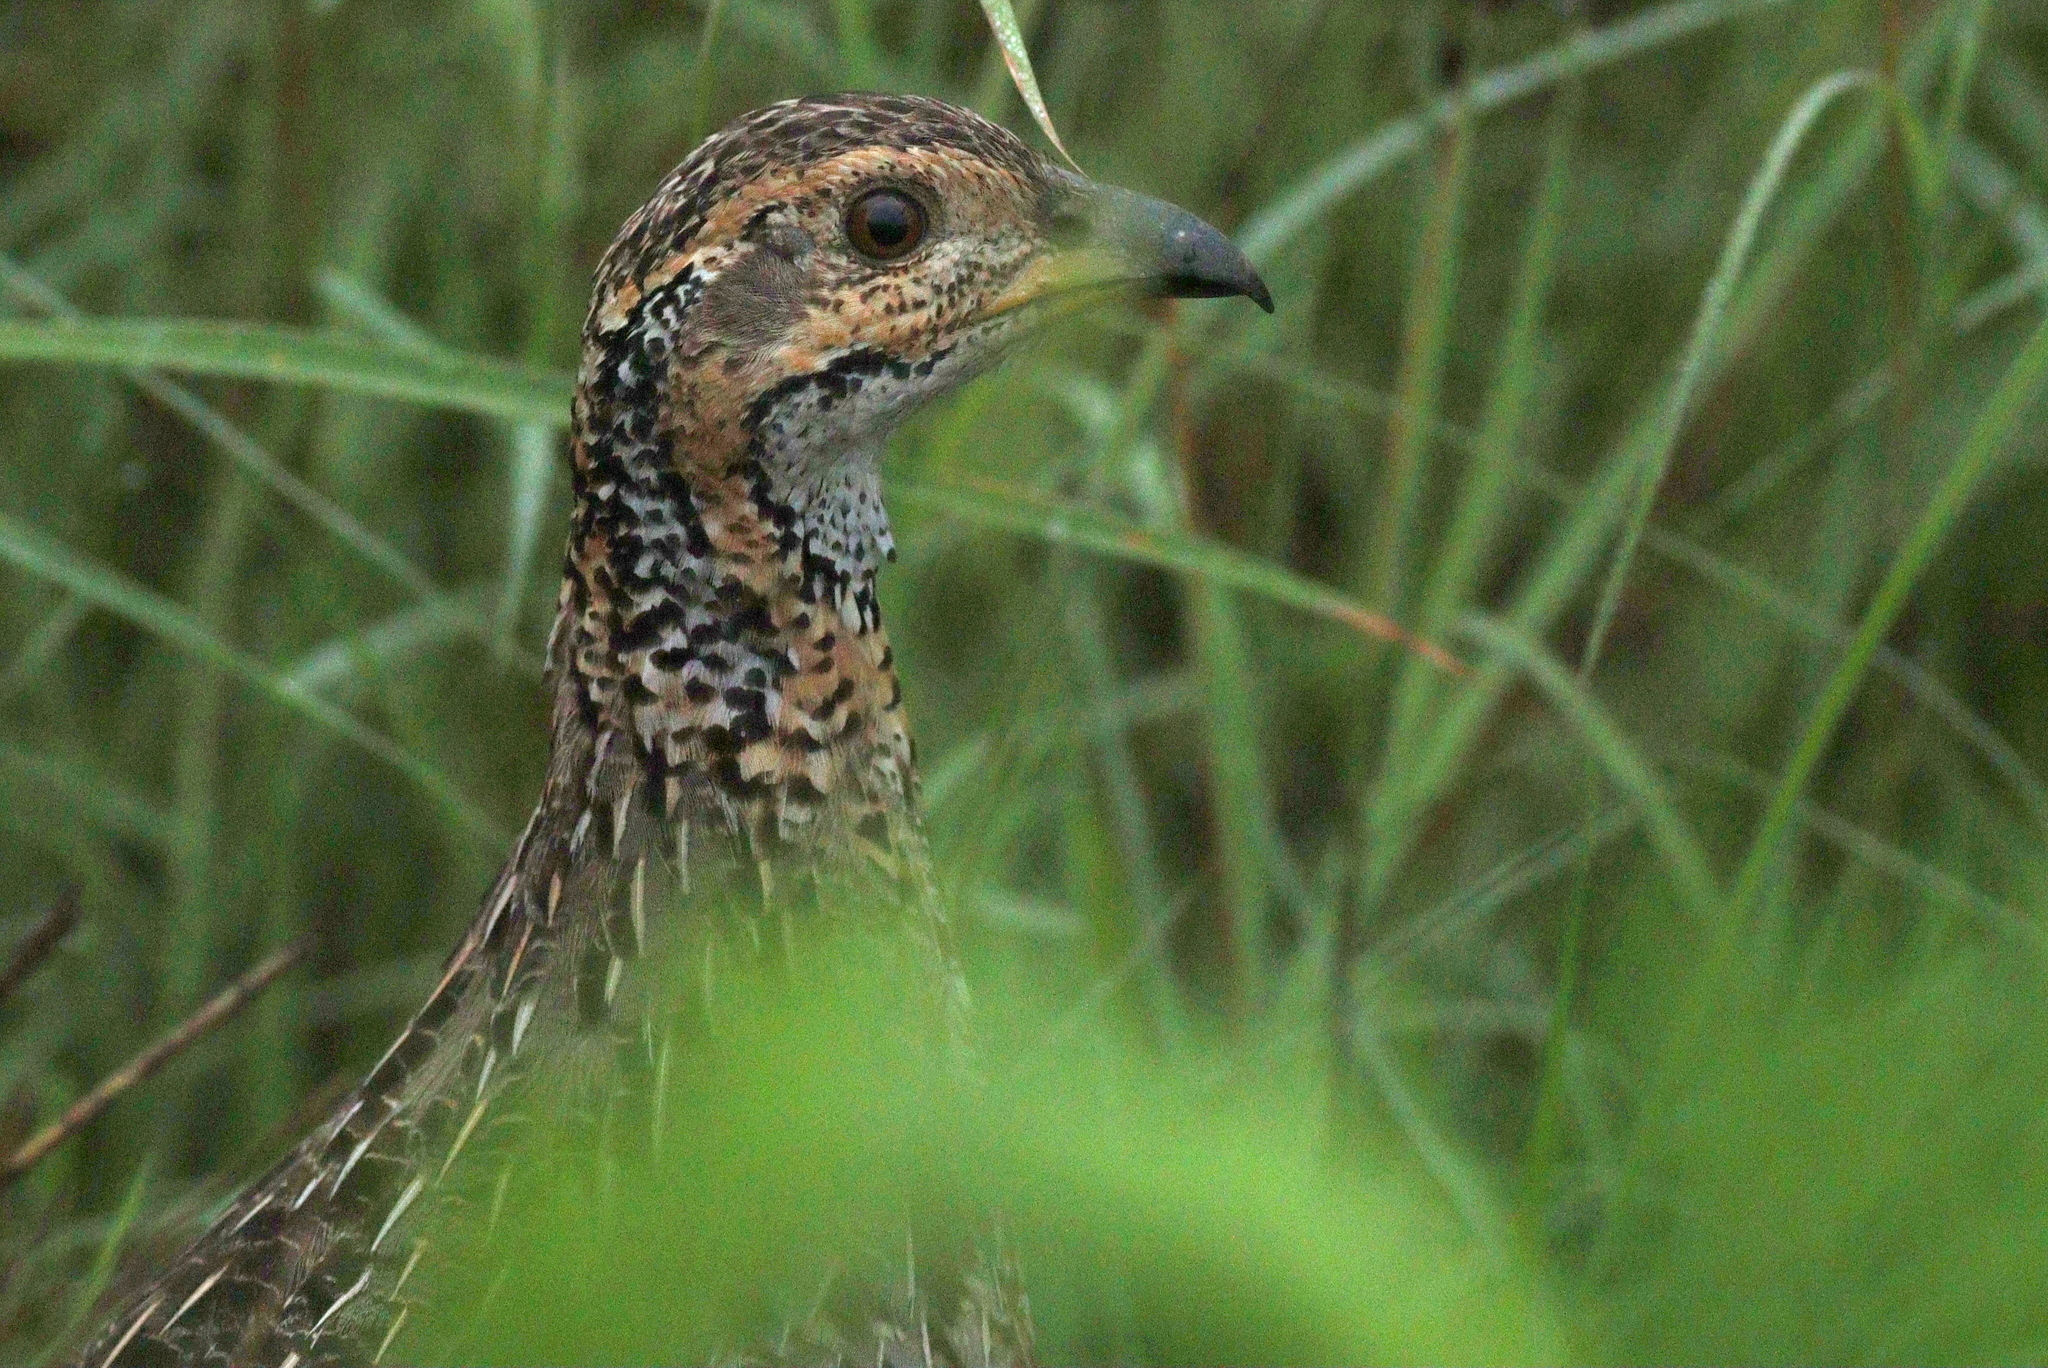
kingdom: Animalia
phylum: Chordata
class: Aves
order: Galliformes
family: Phasianidae
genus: Scleroptila
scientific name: Scleroptila shelleyi
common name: Shelley's francolin
